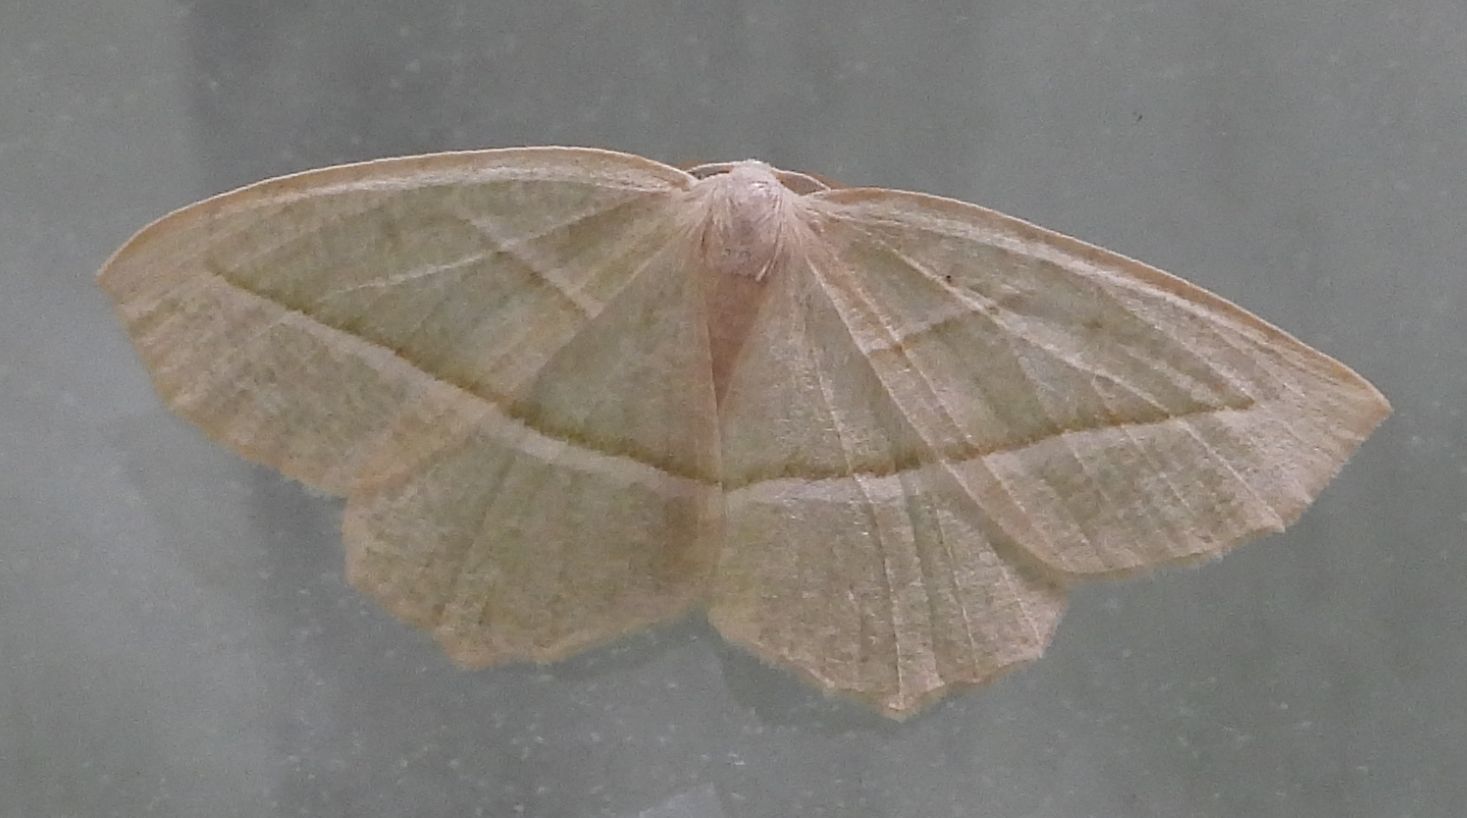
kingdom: Animalia
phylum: Arthropoda
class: Insecta
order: Lepidoptera
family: Geometridae
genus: Campaea
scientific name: Campaea perlata
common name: Fringed looper
